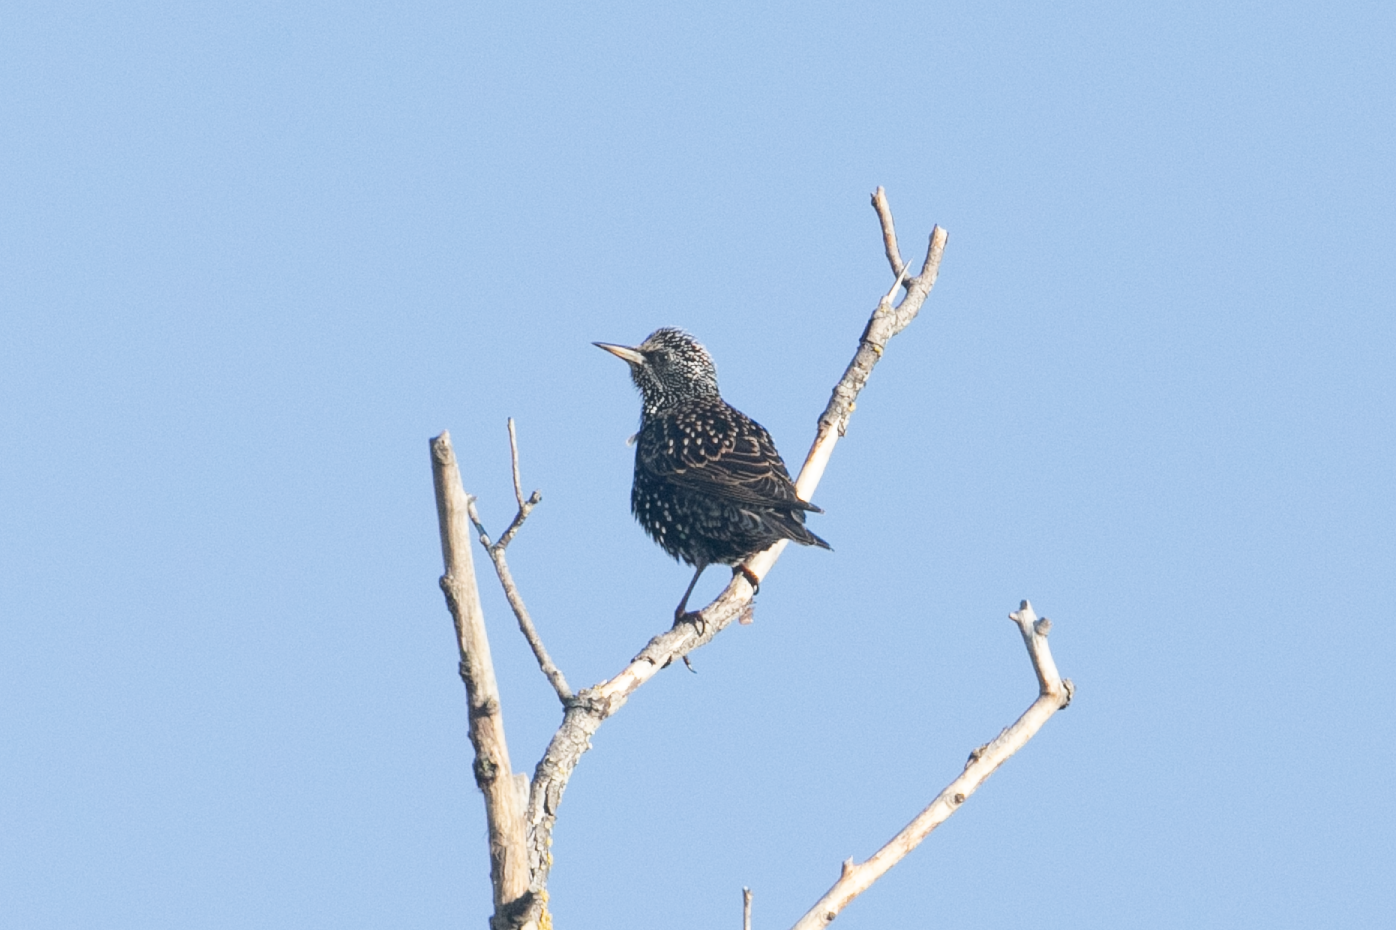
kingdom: Animalia
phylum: Chordata
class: Aves
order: Passeriformes
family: Sturnidae
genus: Sturnus
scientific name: Sturnus vulgaris
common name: Common starling
